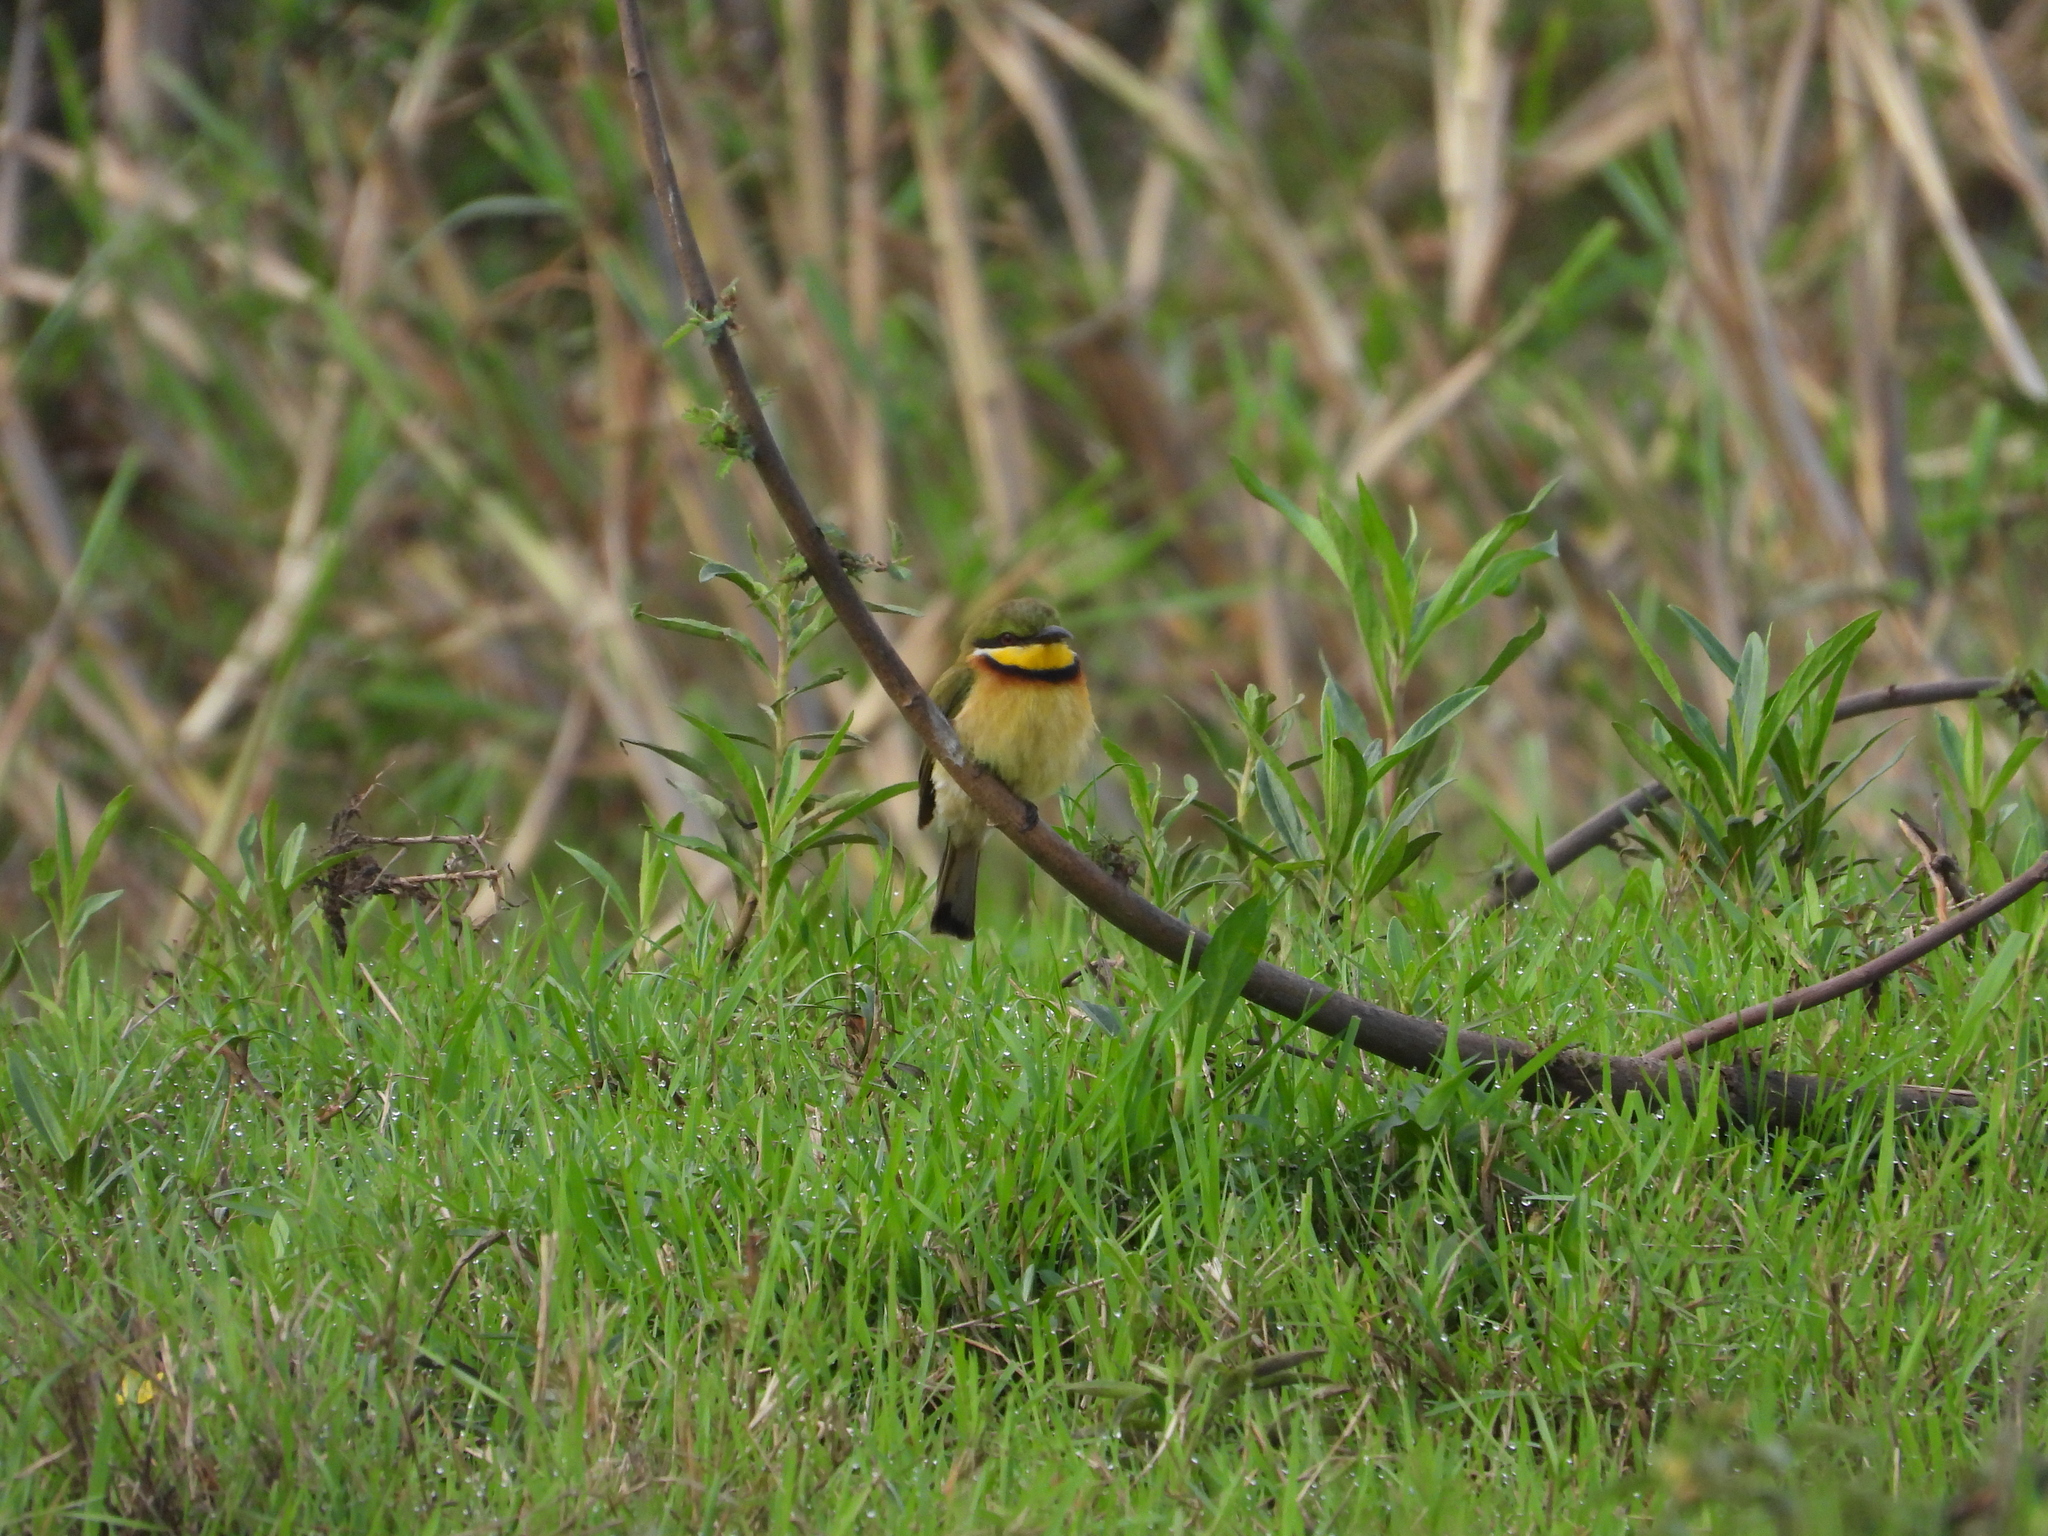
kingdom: Animalia
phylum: Chordata
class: Aves
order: Coraciiformes
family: Meropidae
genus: Merops
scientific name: Merops variegatus
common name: Blue-breasted bee-eater
